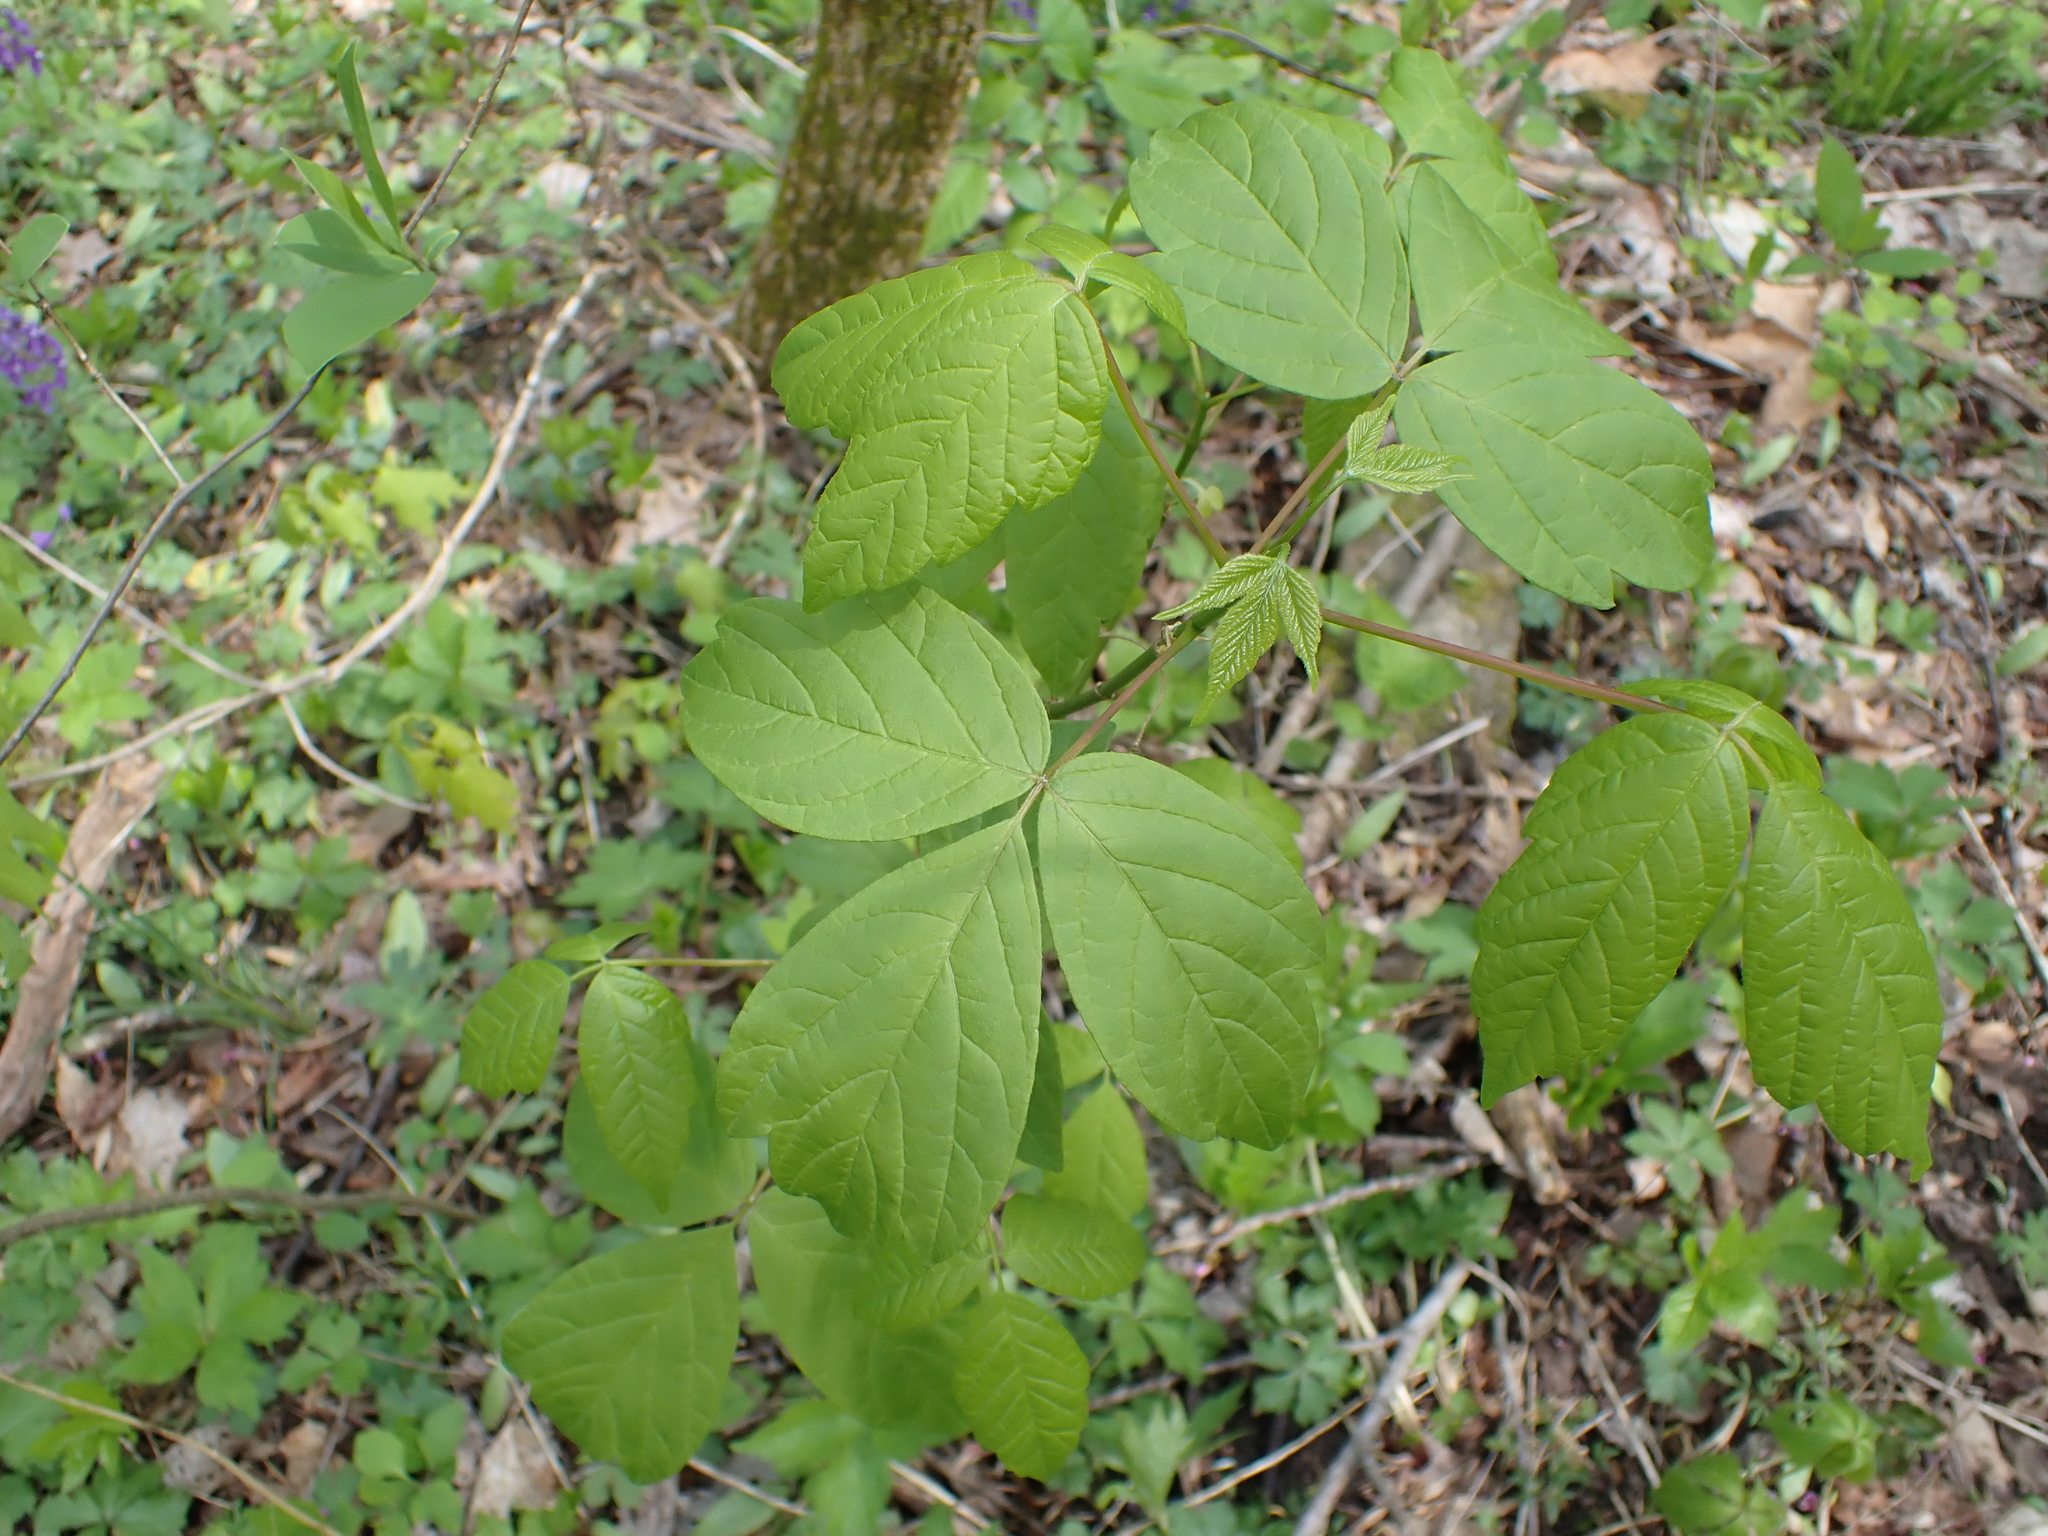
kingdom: Plantae
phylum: Tracheophyta
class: Magnoliopsida
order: Sapindales
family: Sapindaceae
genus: Acer
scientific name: Acer negundo
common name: Ashleaf maple
